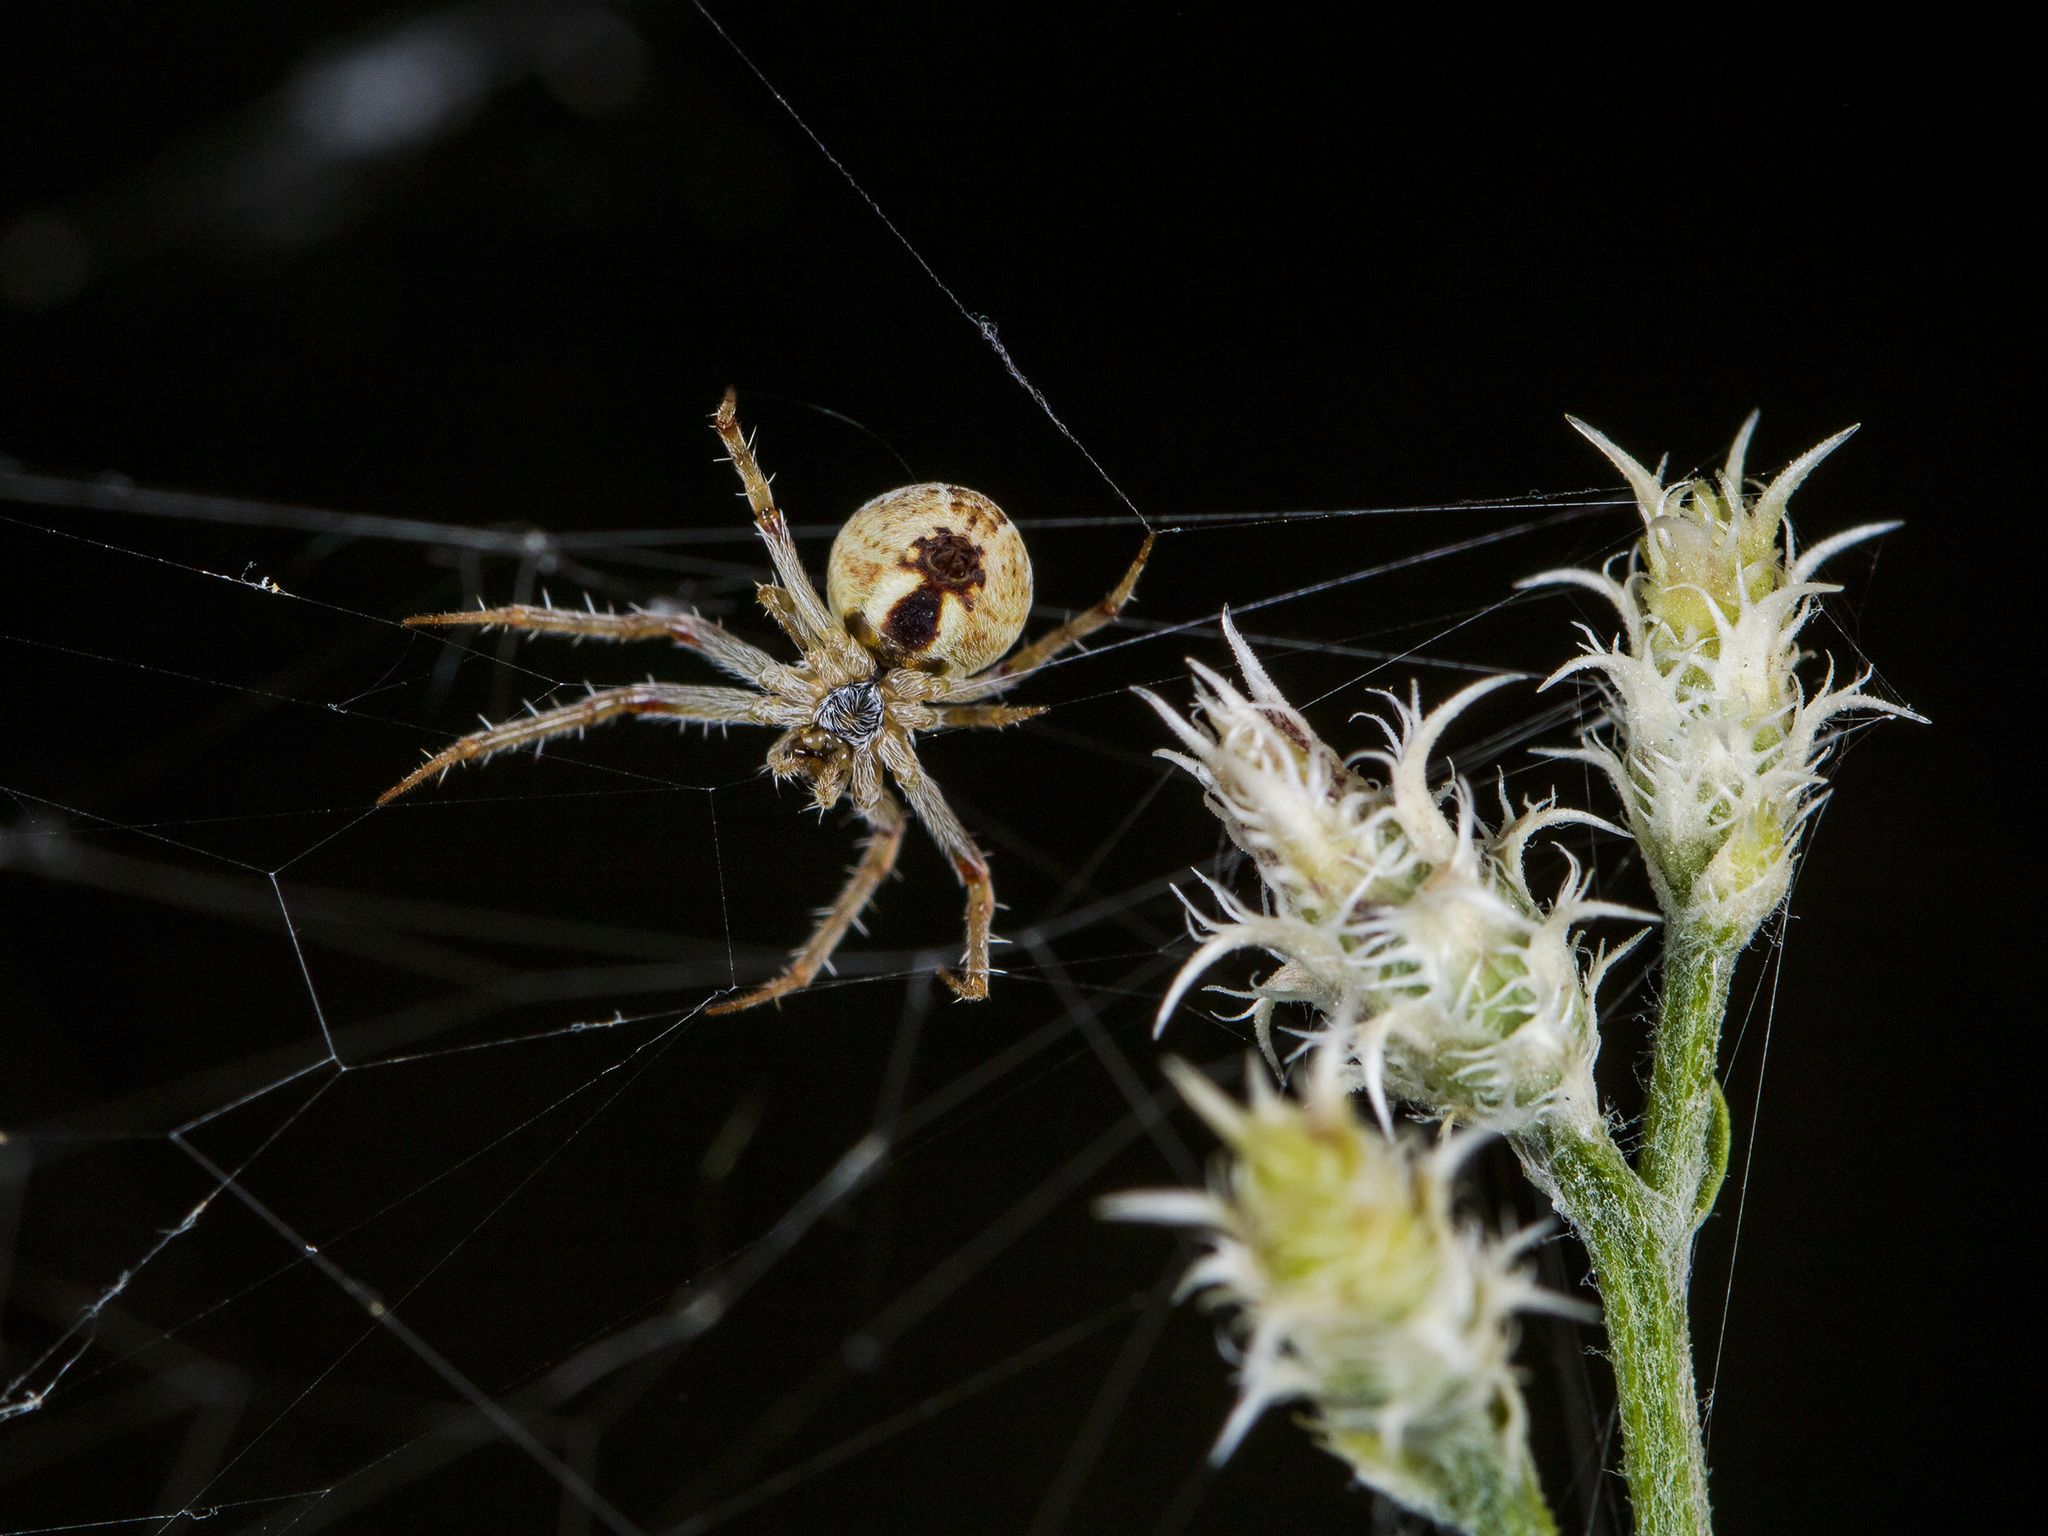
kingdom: Animalia
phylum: Arthropoda
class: Arachnida
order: Araneae
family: Araneidae
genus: Araneus
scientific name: Araneus pallasi
